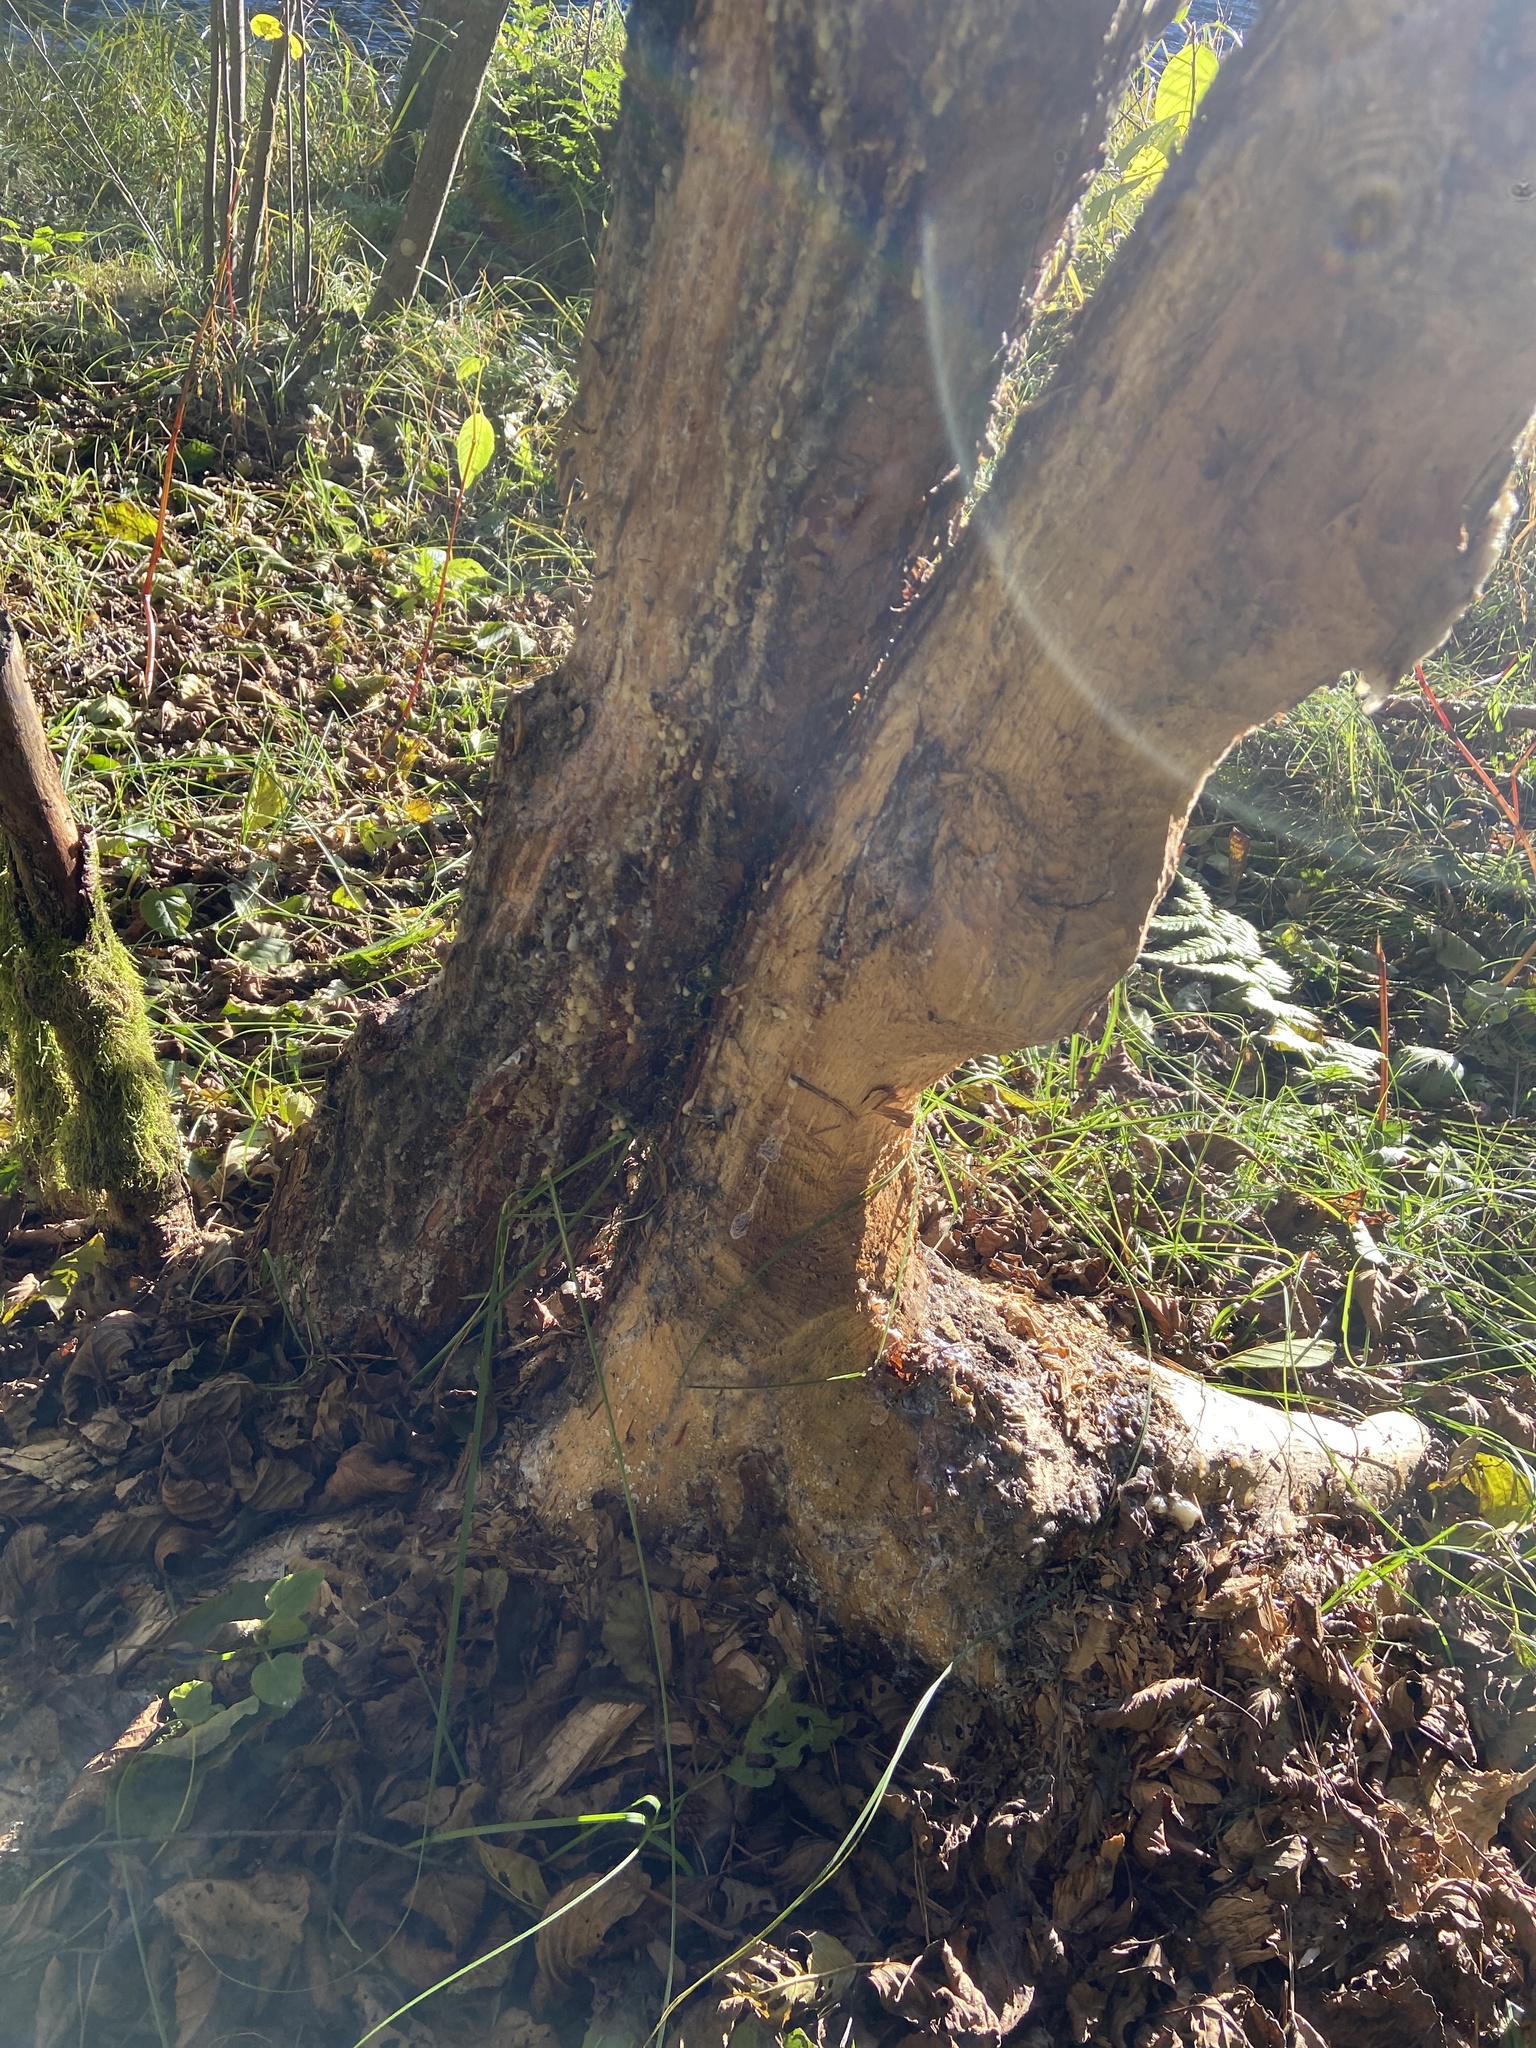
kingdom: Animalia
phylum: Chordata
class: Mammalia
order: Rodentia
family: Castoridae
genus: Castor
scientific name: Castor fiber
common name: Eurasian beaver
